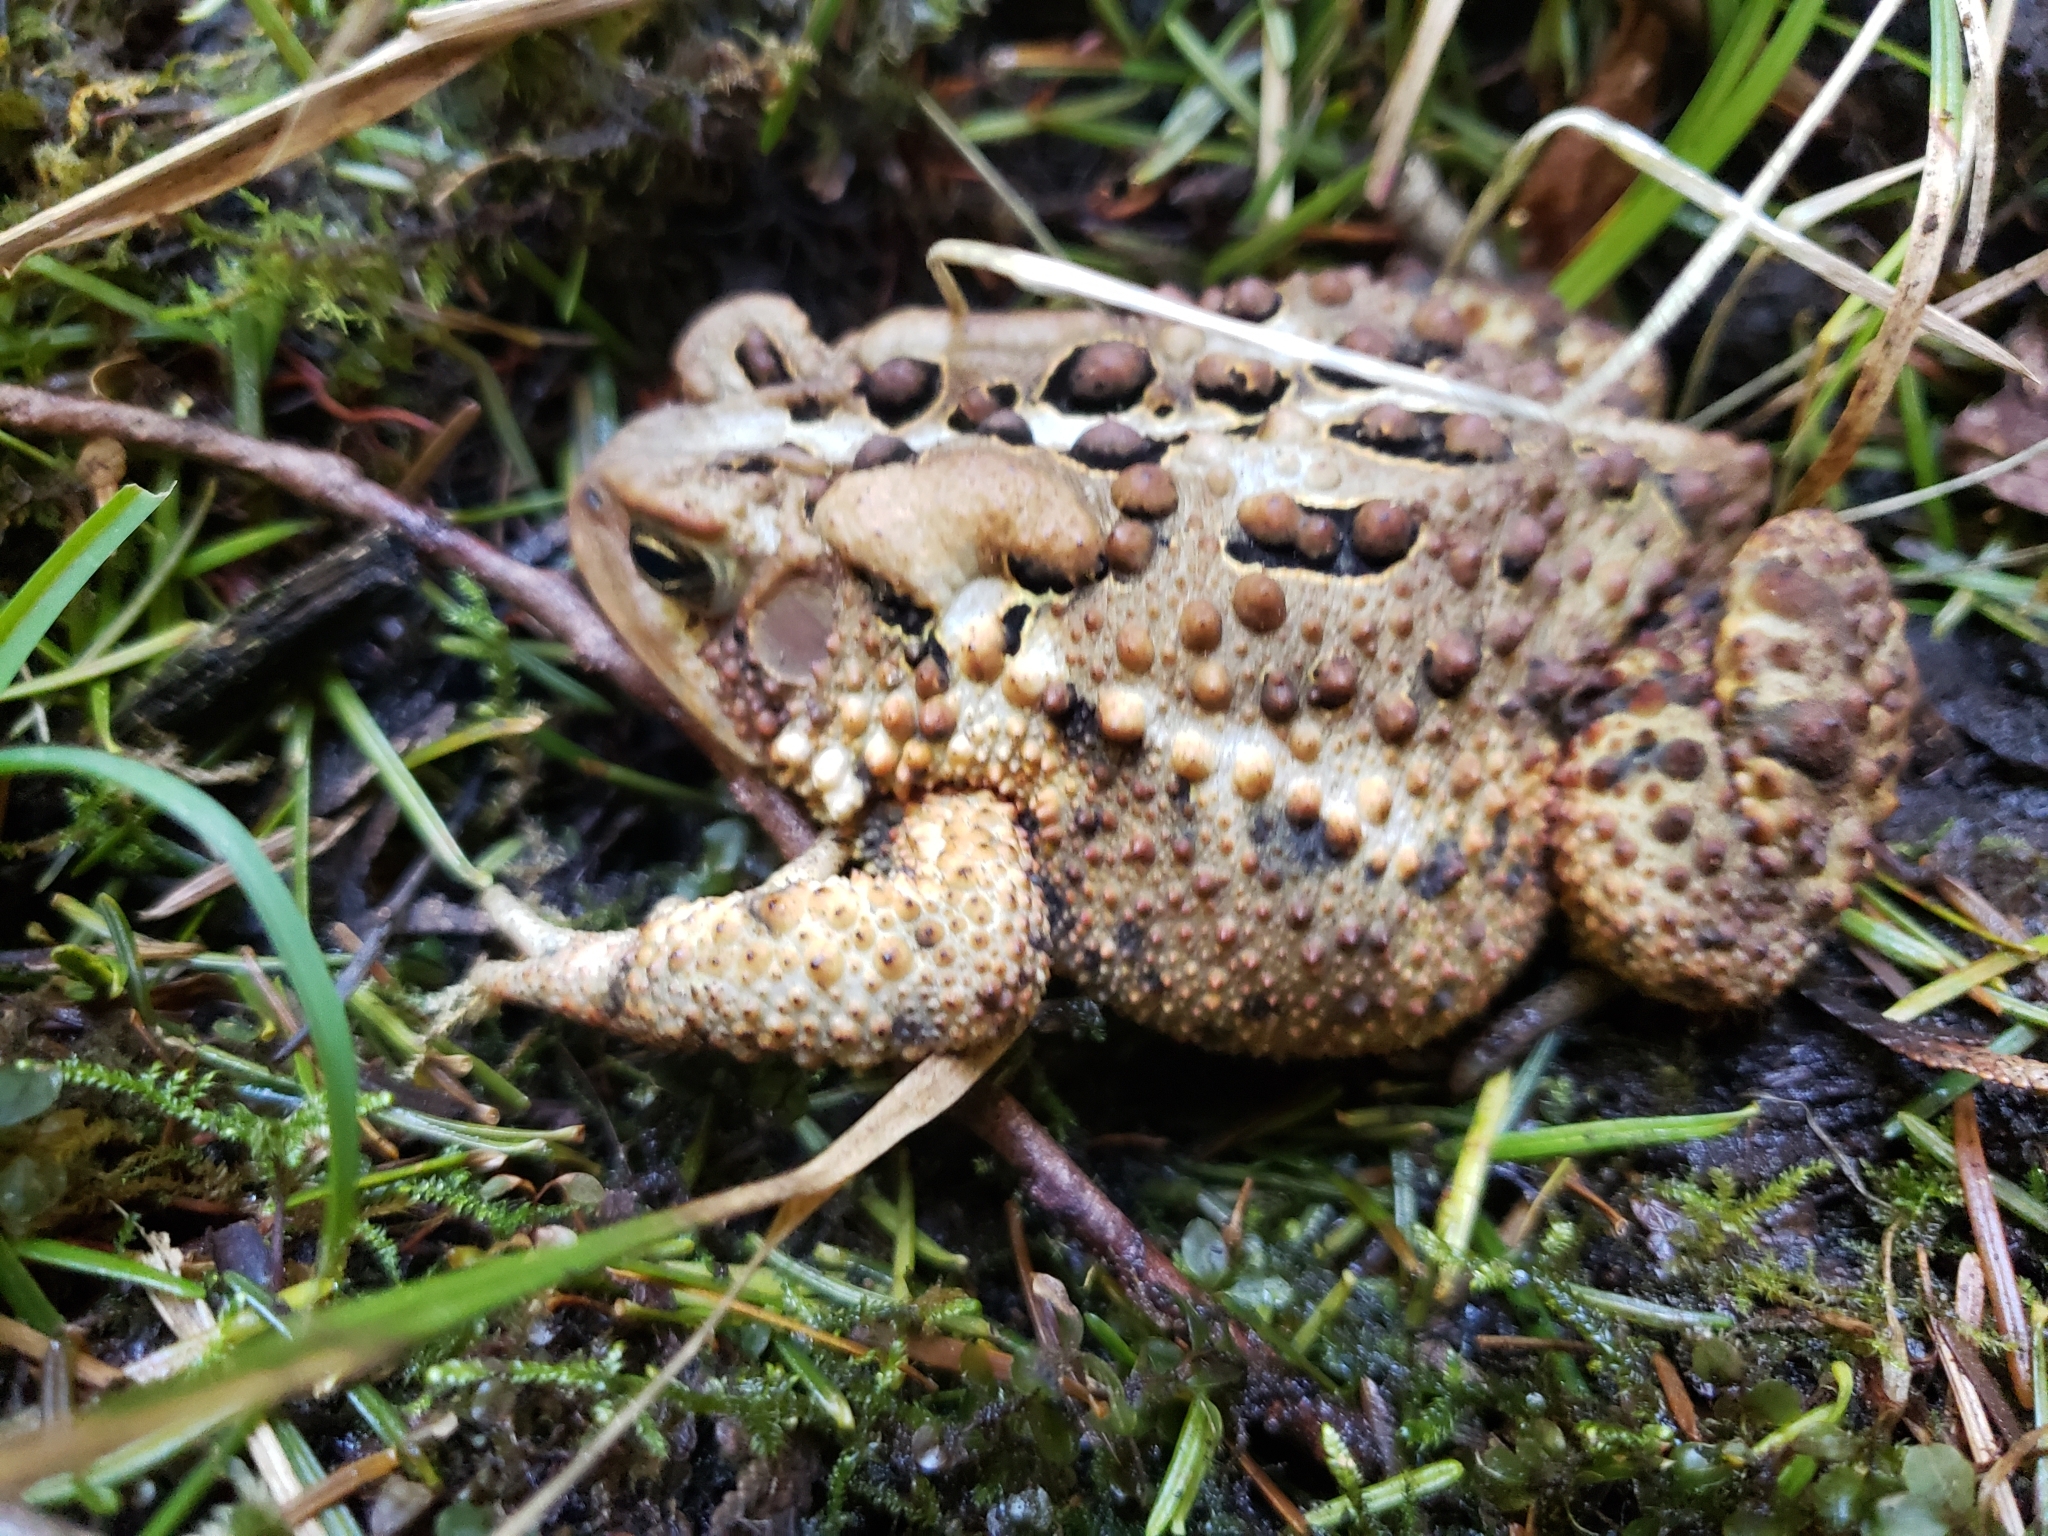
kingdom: Animalia
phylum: Chordata
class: Amphibia
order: Anura
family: Bufonidae
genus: Anaxyrus
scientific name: Anaxyrus americanus
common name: American toad
